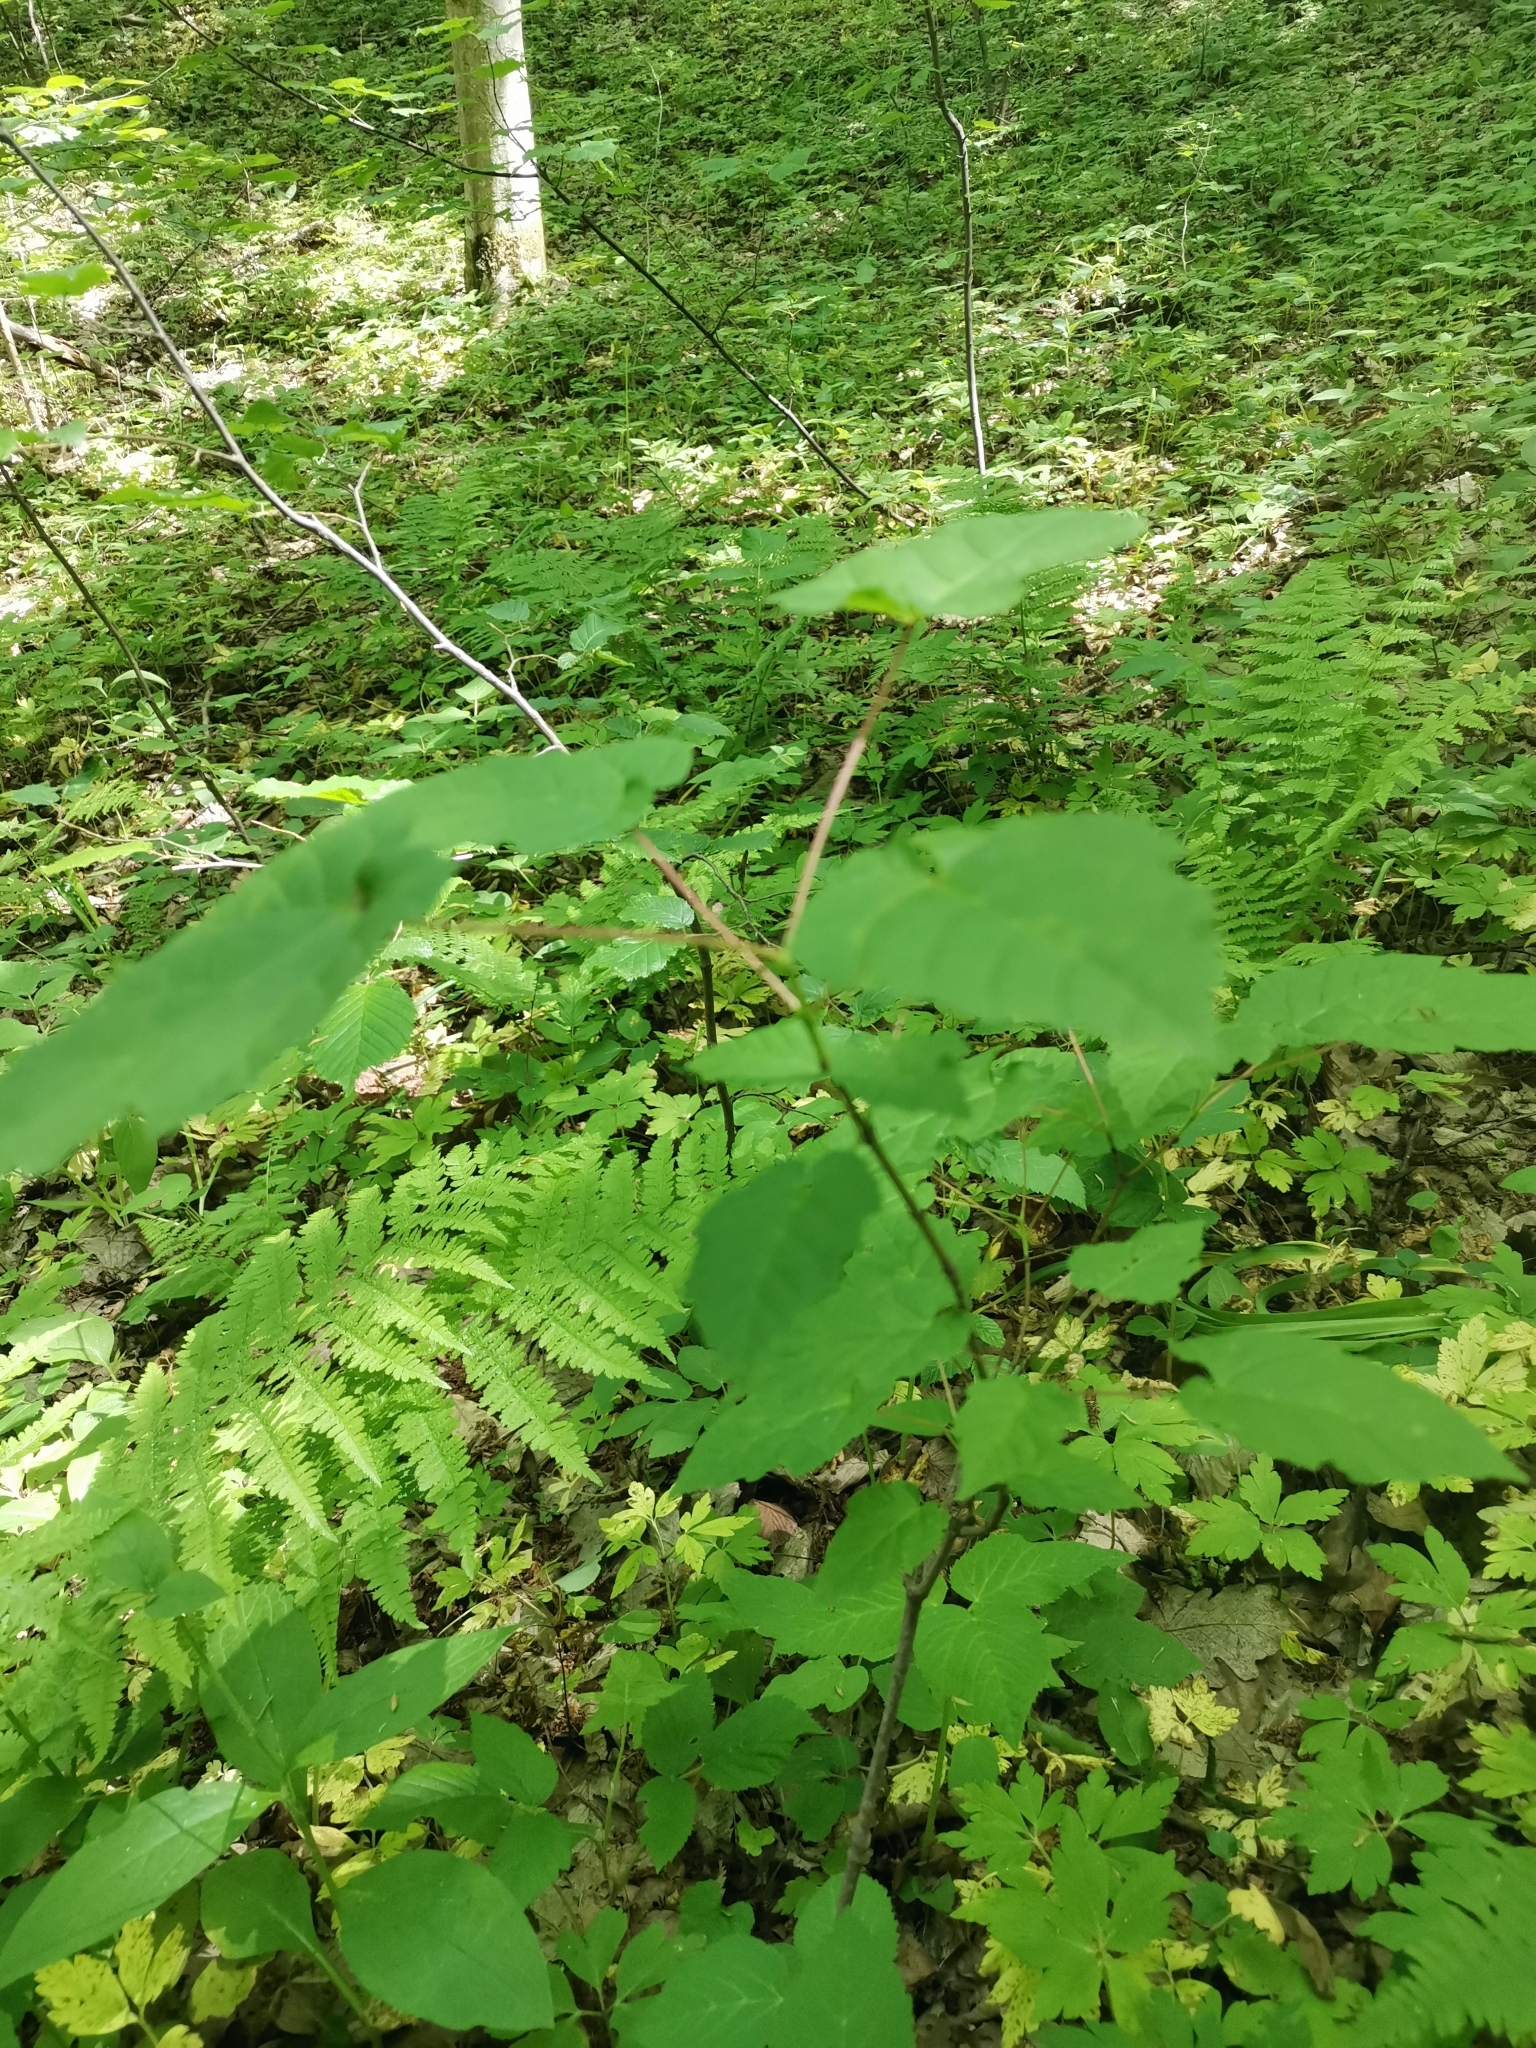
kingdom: Plantae
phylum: Tracheophyta
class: Magnoliopsida
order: Sapindales
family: Sapindaceae
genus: Acer
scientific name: Acer tataricum
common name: Tartar maple
